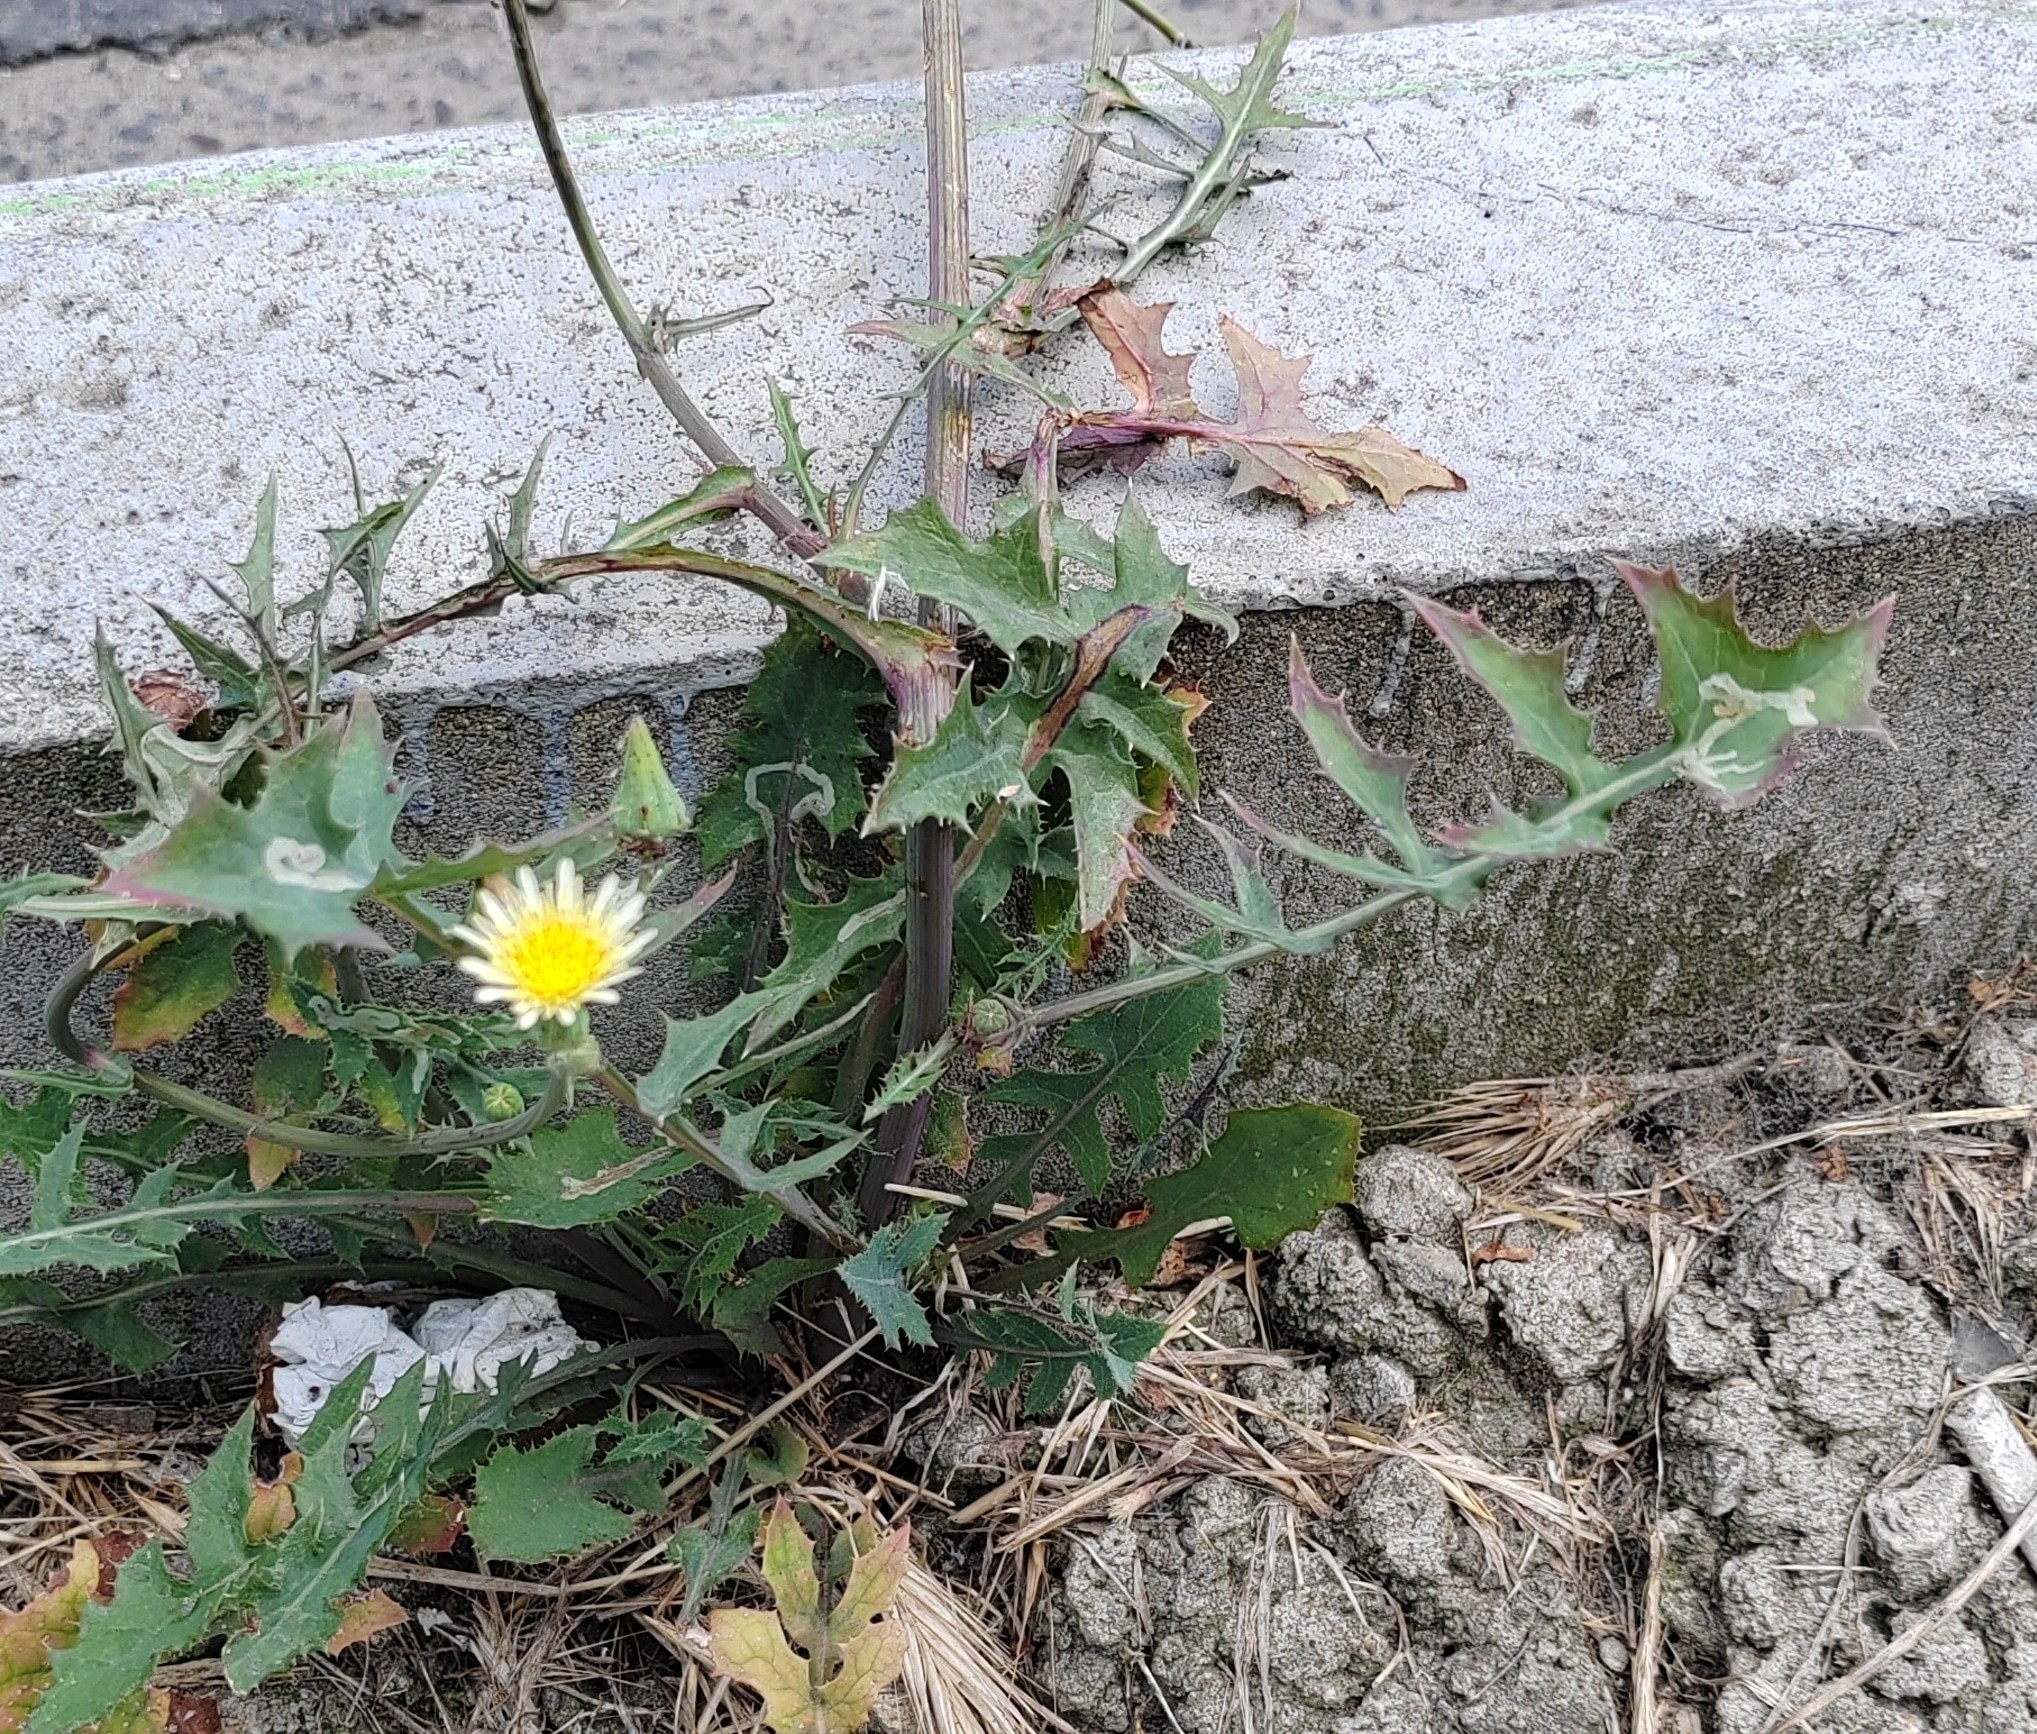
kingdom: Plantae
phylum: Tracheophyta
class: Magnoliopsida
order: Asterales
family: Asteraceae
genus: Sonchus
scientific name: Sonchus oleraceus
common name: Common sowthistle
